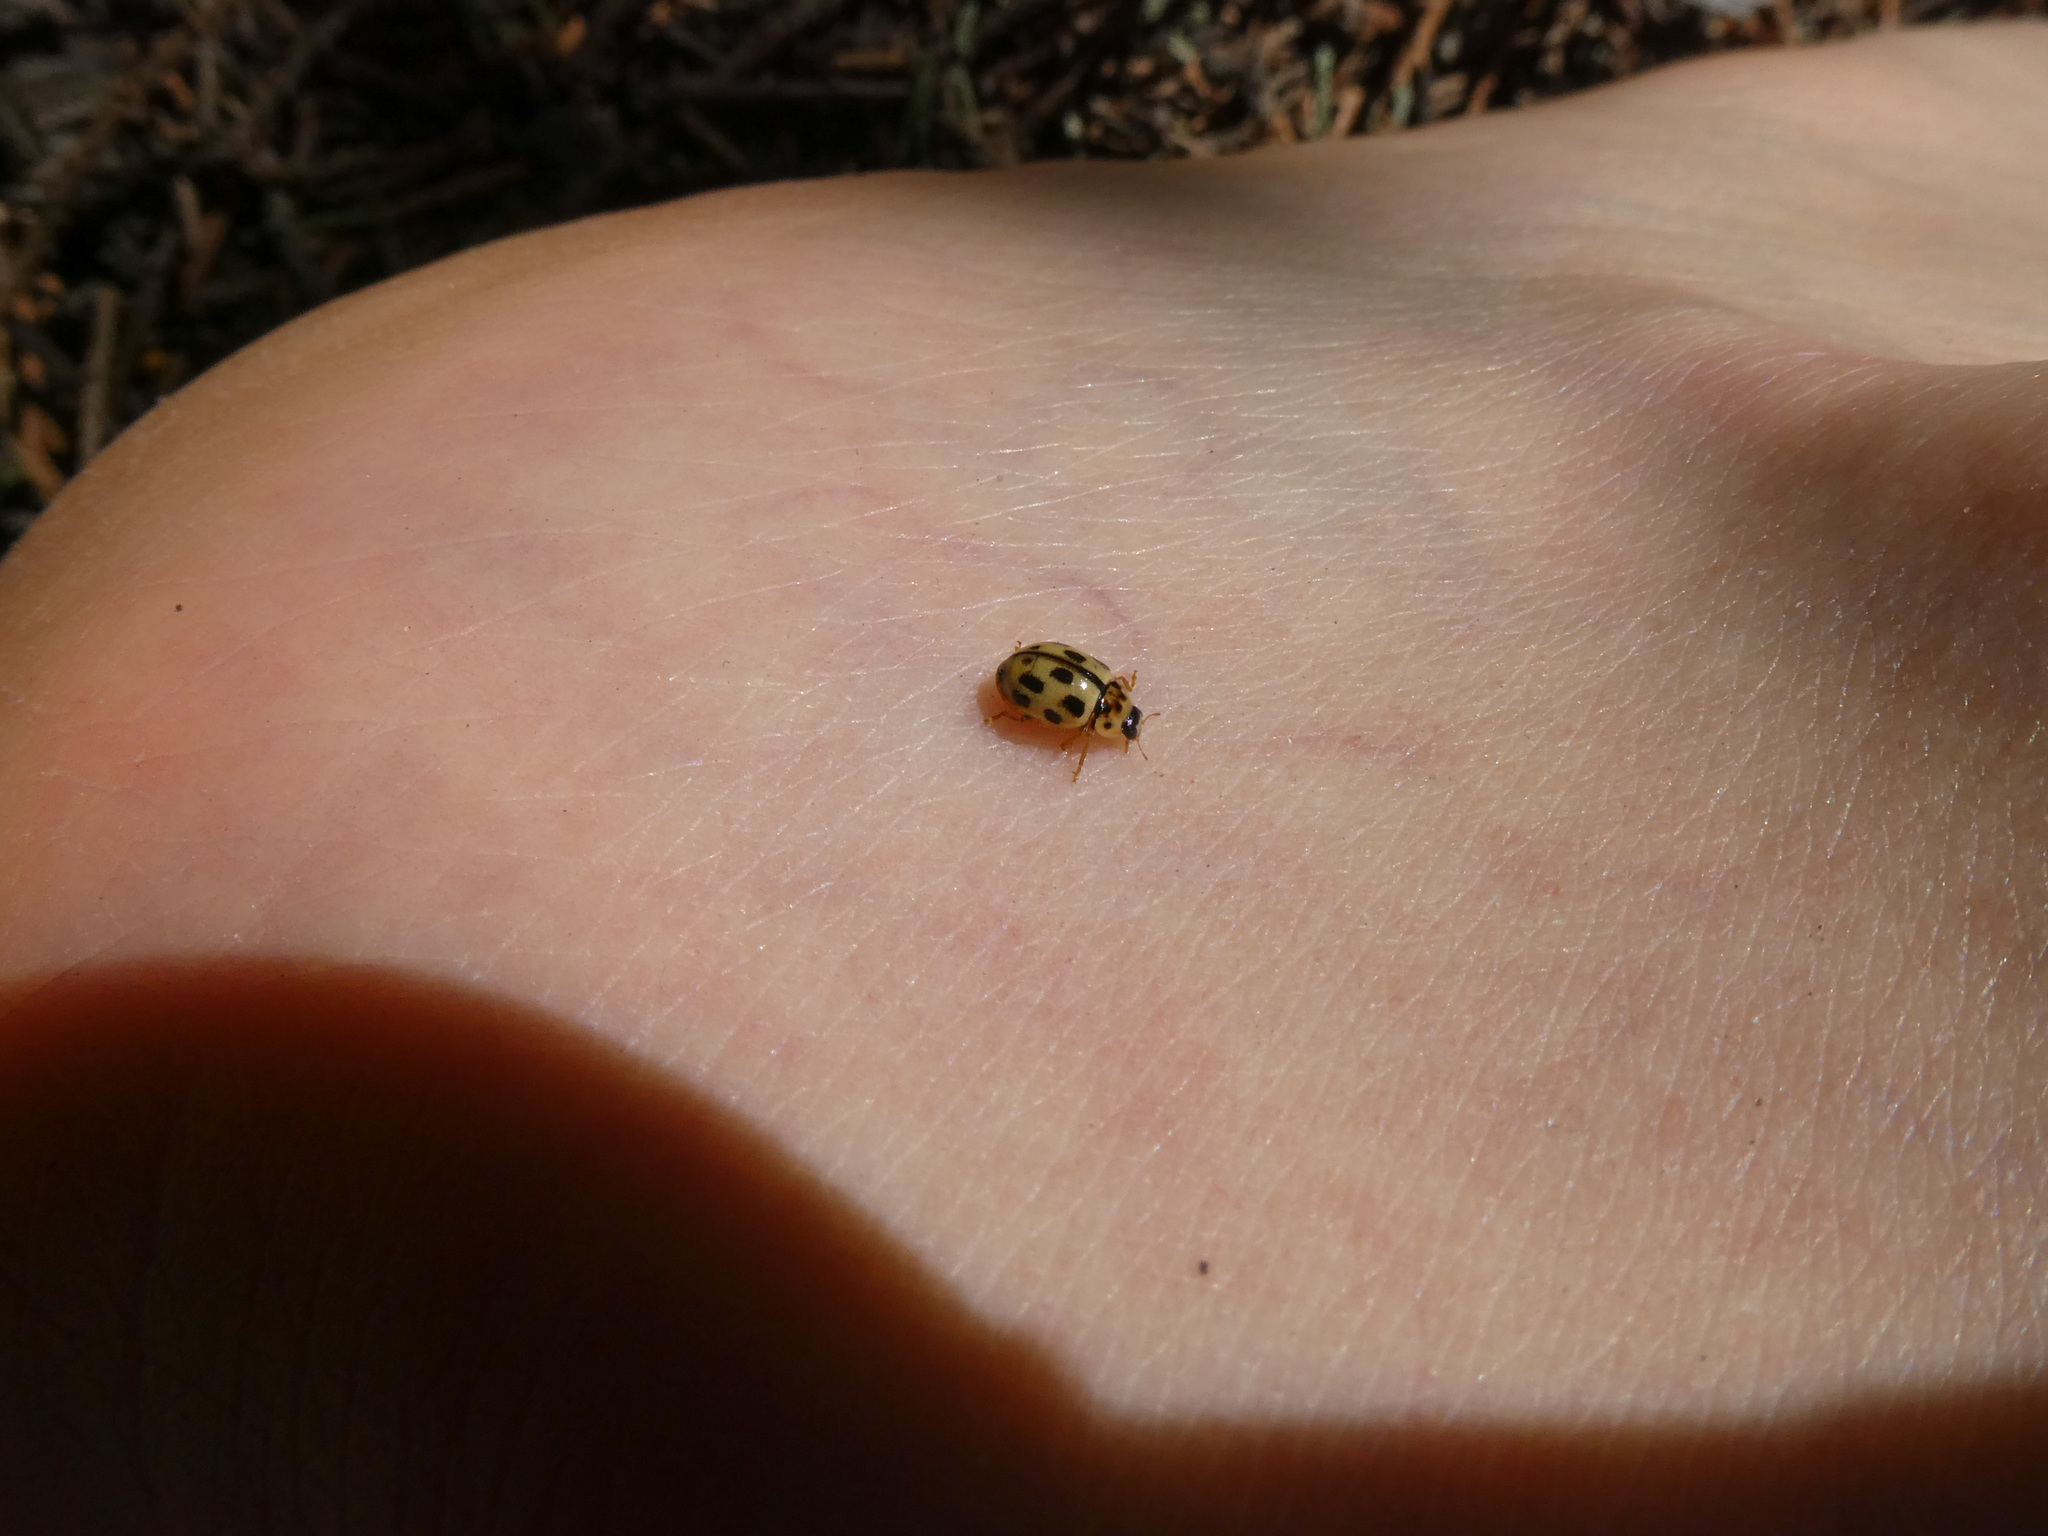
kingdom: Animalia
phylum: Arthropoda
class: Insecta
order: Coleoptera
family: Coccinellidae
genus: Propylaea
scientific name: Propylaea quatuordecimpunctata
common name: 14-spotted ladybird beetle
